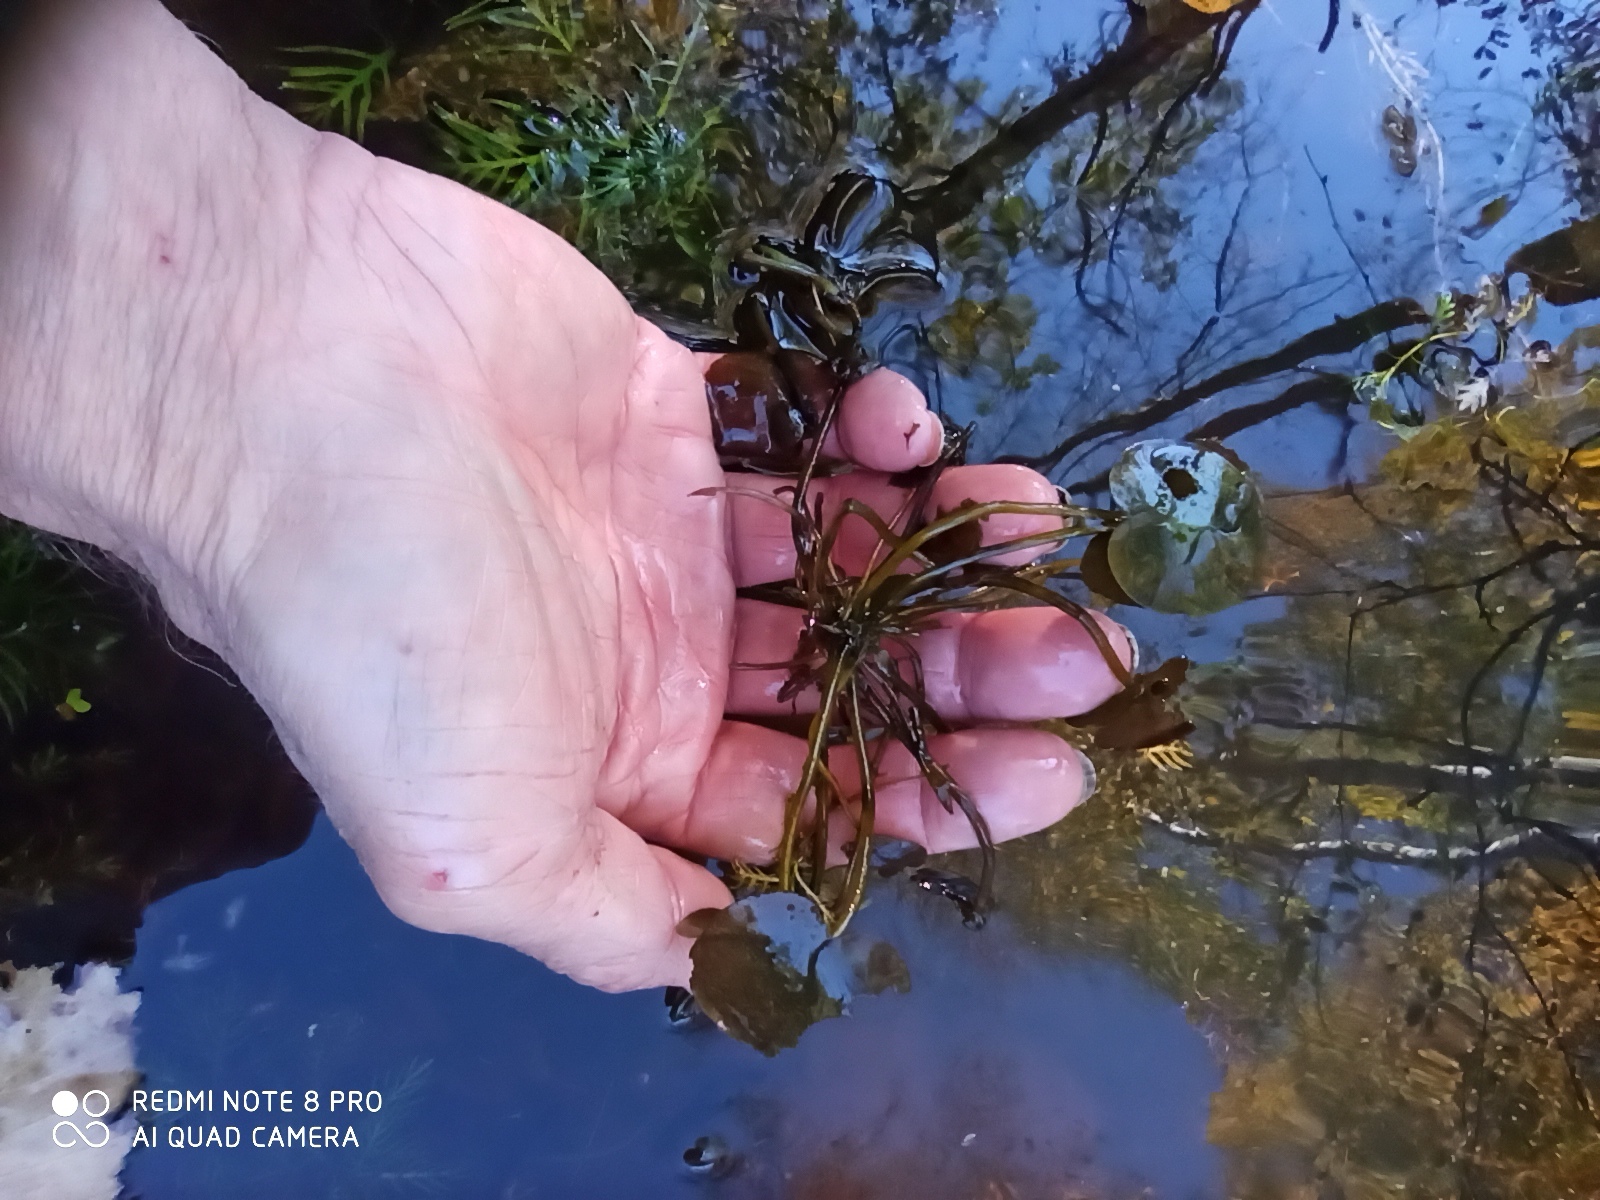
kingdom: Plantae
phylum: Tracheophyta
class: Liliopsida
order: Alismatales
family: Hydrocharitaceae
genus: Hydrocharis
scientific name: Hydrocharis morsus-ranae
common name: Frogbit
